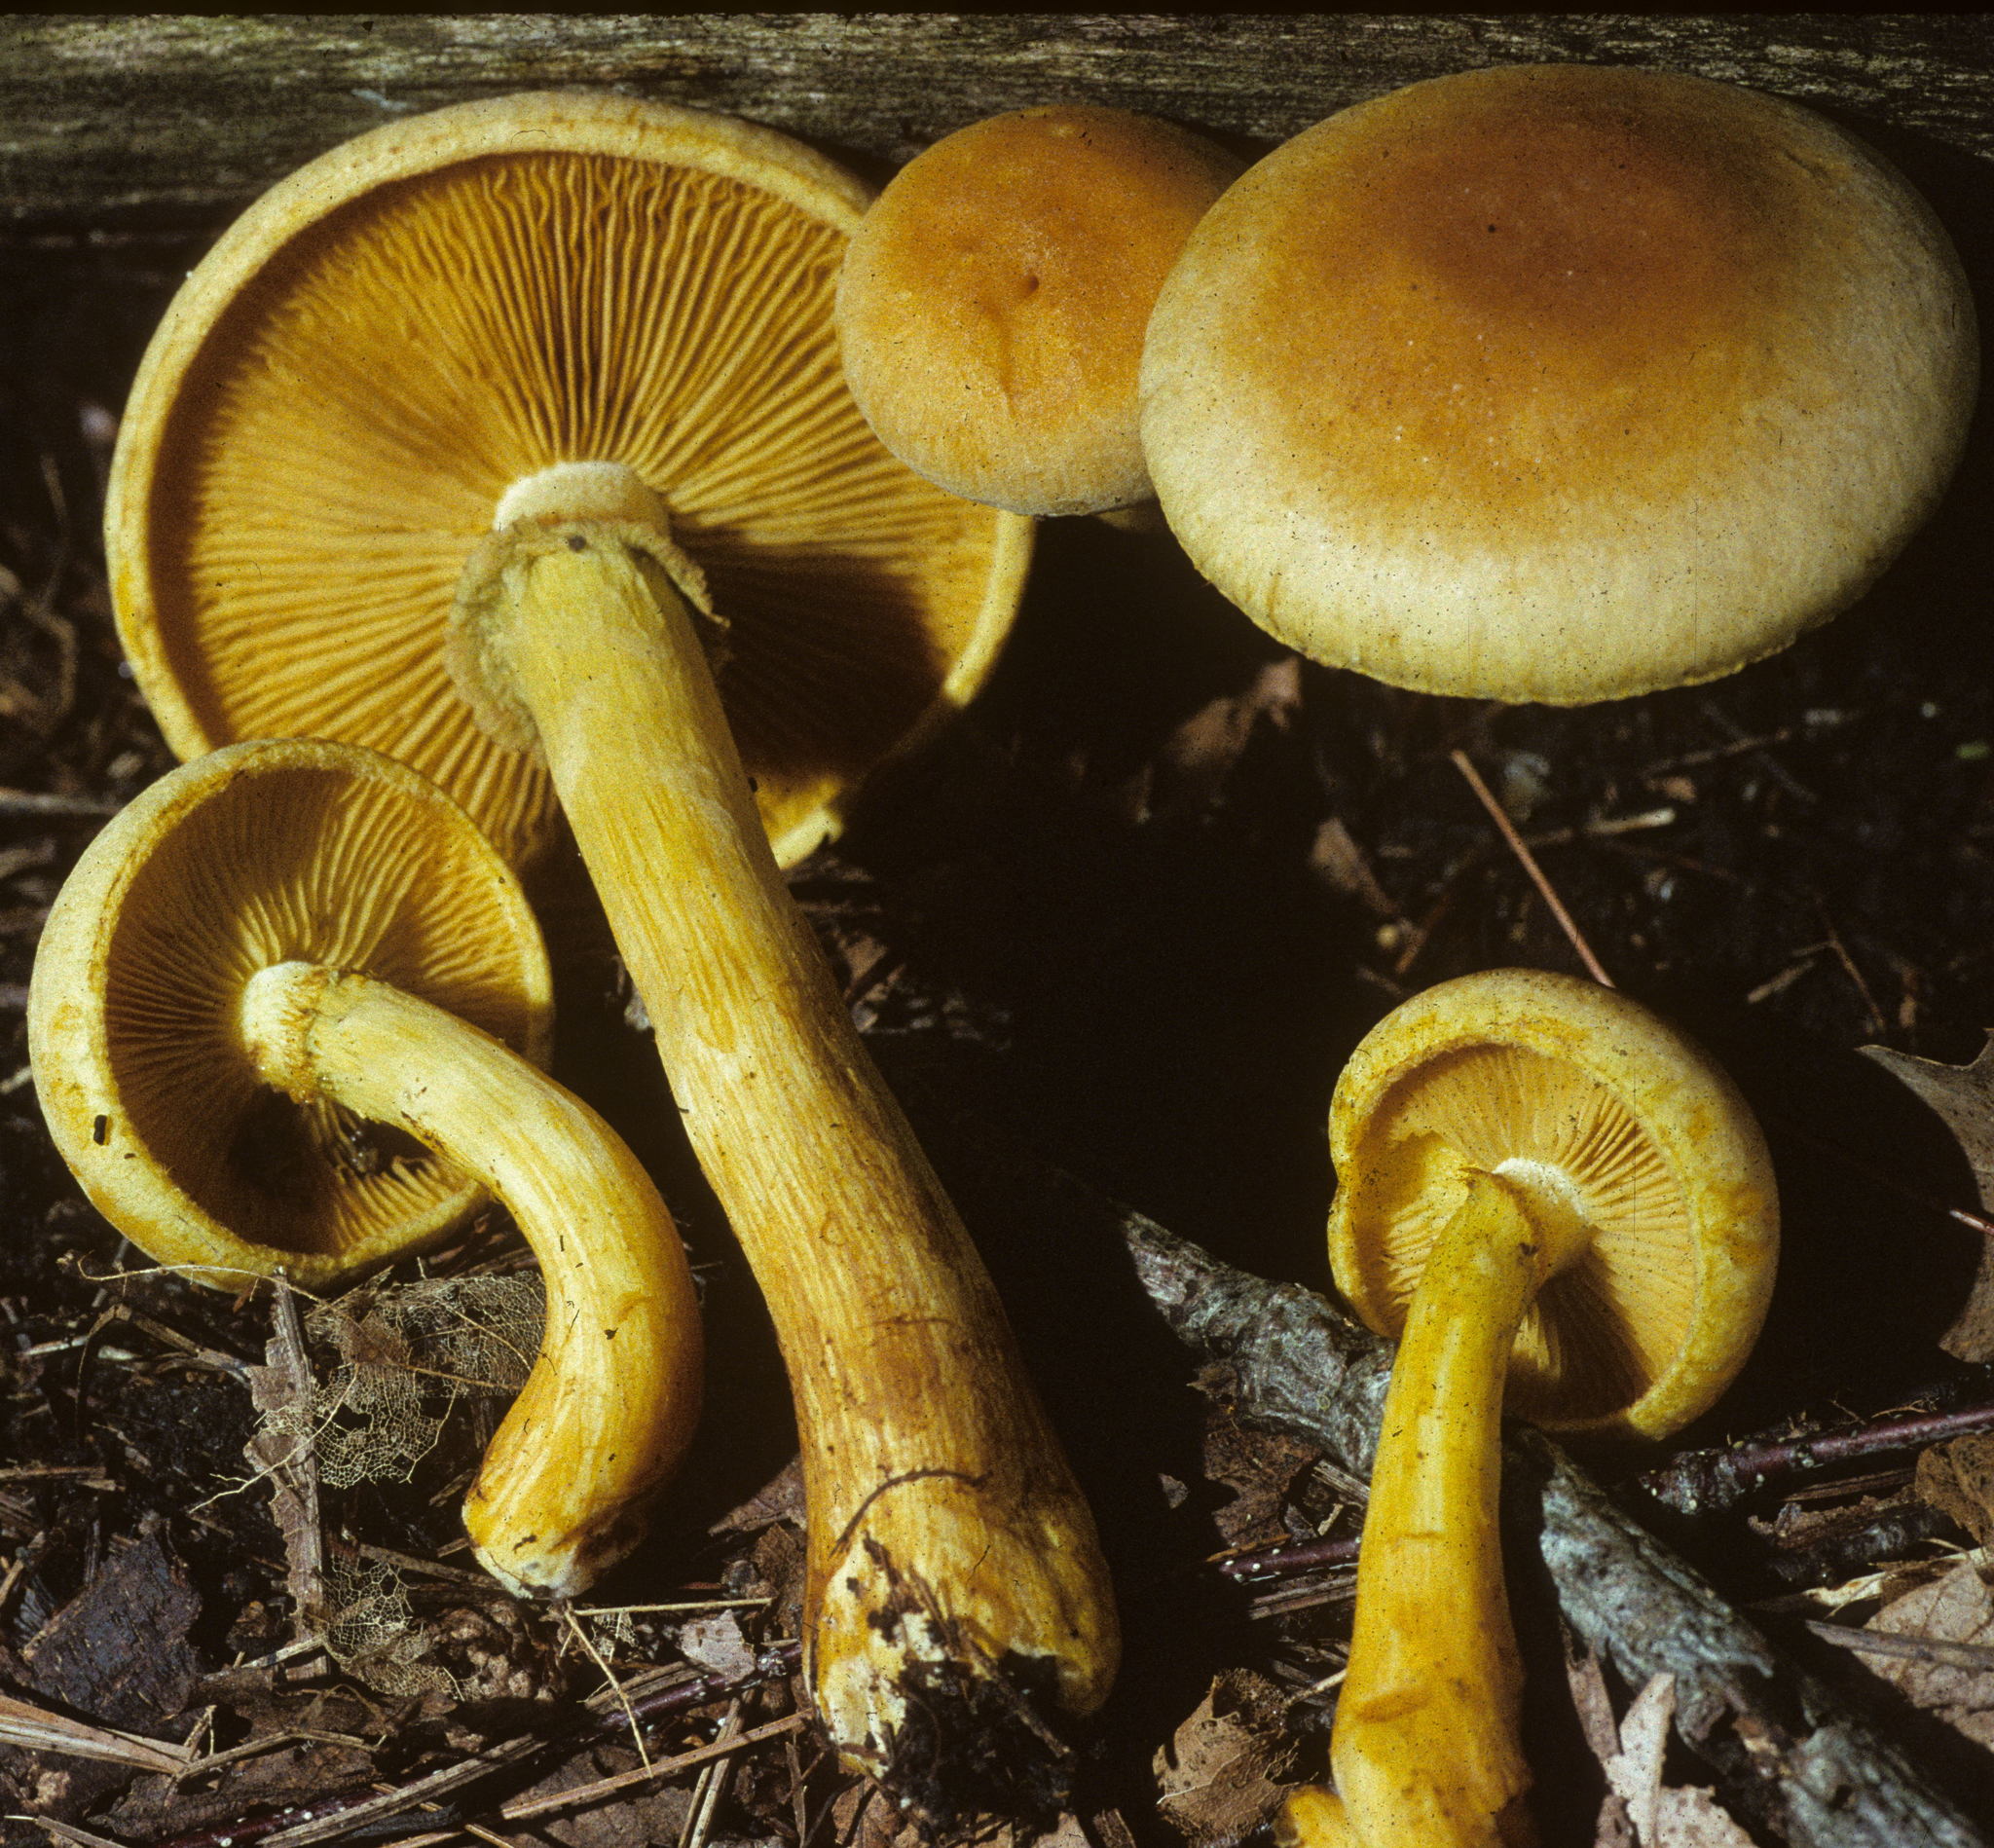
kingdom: Fungi
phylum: Basidiomycota
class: Agaricomycetes
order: Agaricales
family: Hymenogastraceae
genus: Gymnopilus
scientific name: Gymnopilus luteus
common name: Yellow gymnopilus
